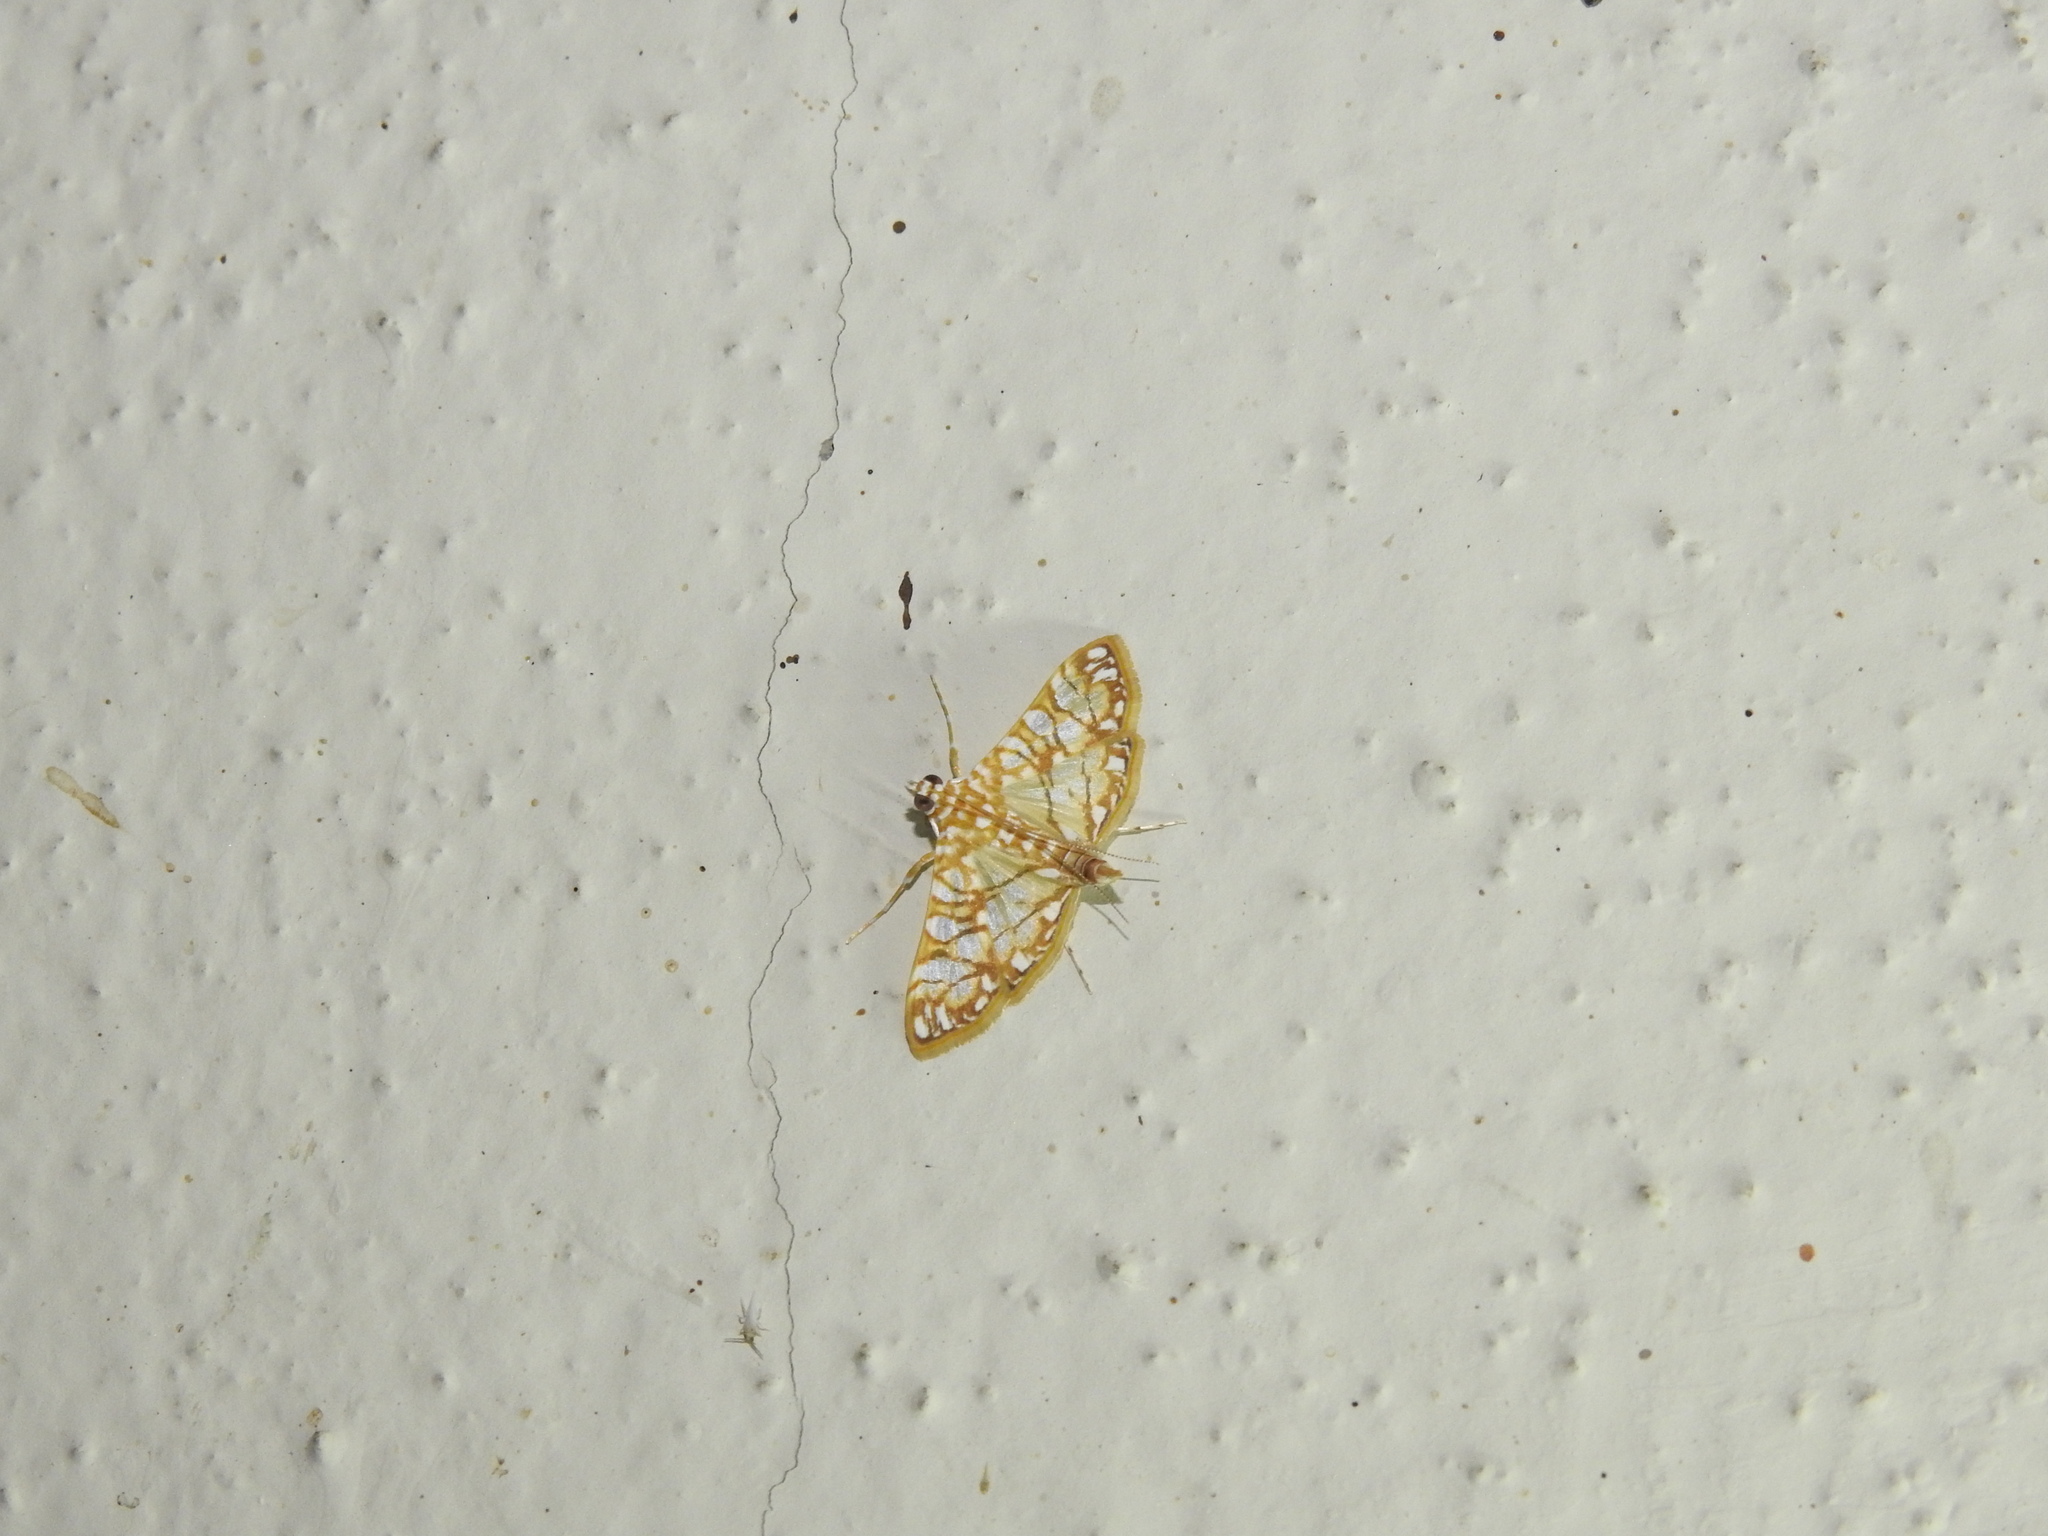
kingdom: Animalia
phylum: Arthropoda
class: Insecta
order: Lepidoptera
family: Crambidae
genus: Synclera
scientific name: Synclera traducalis
